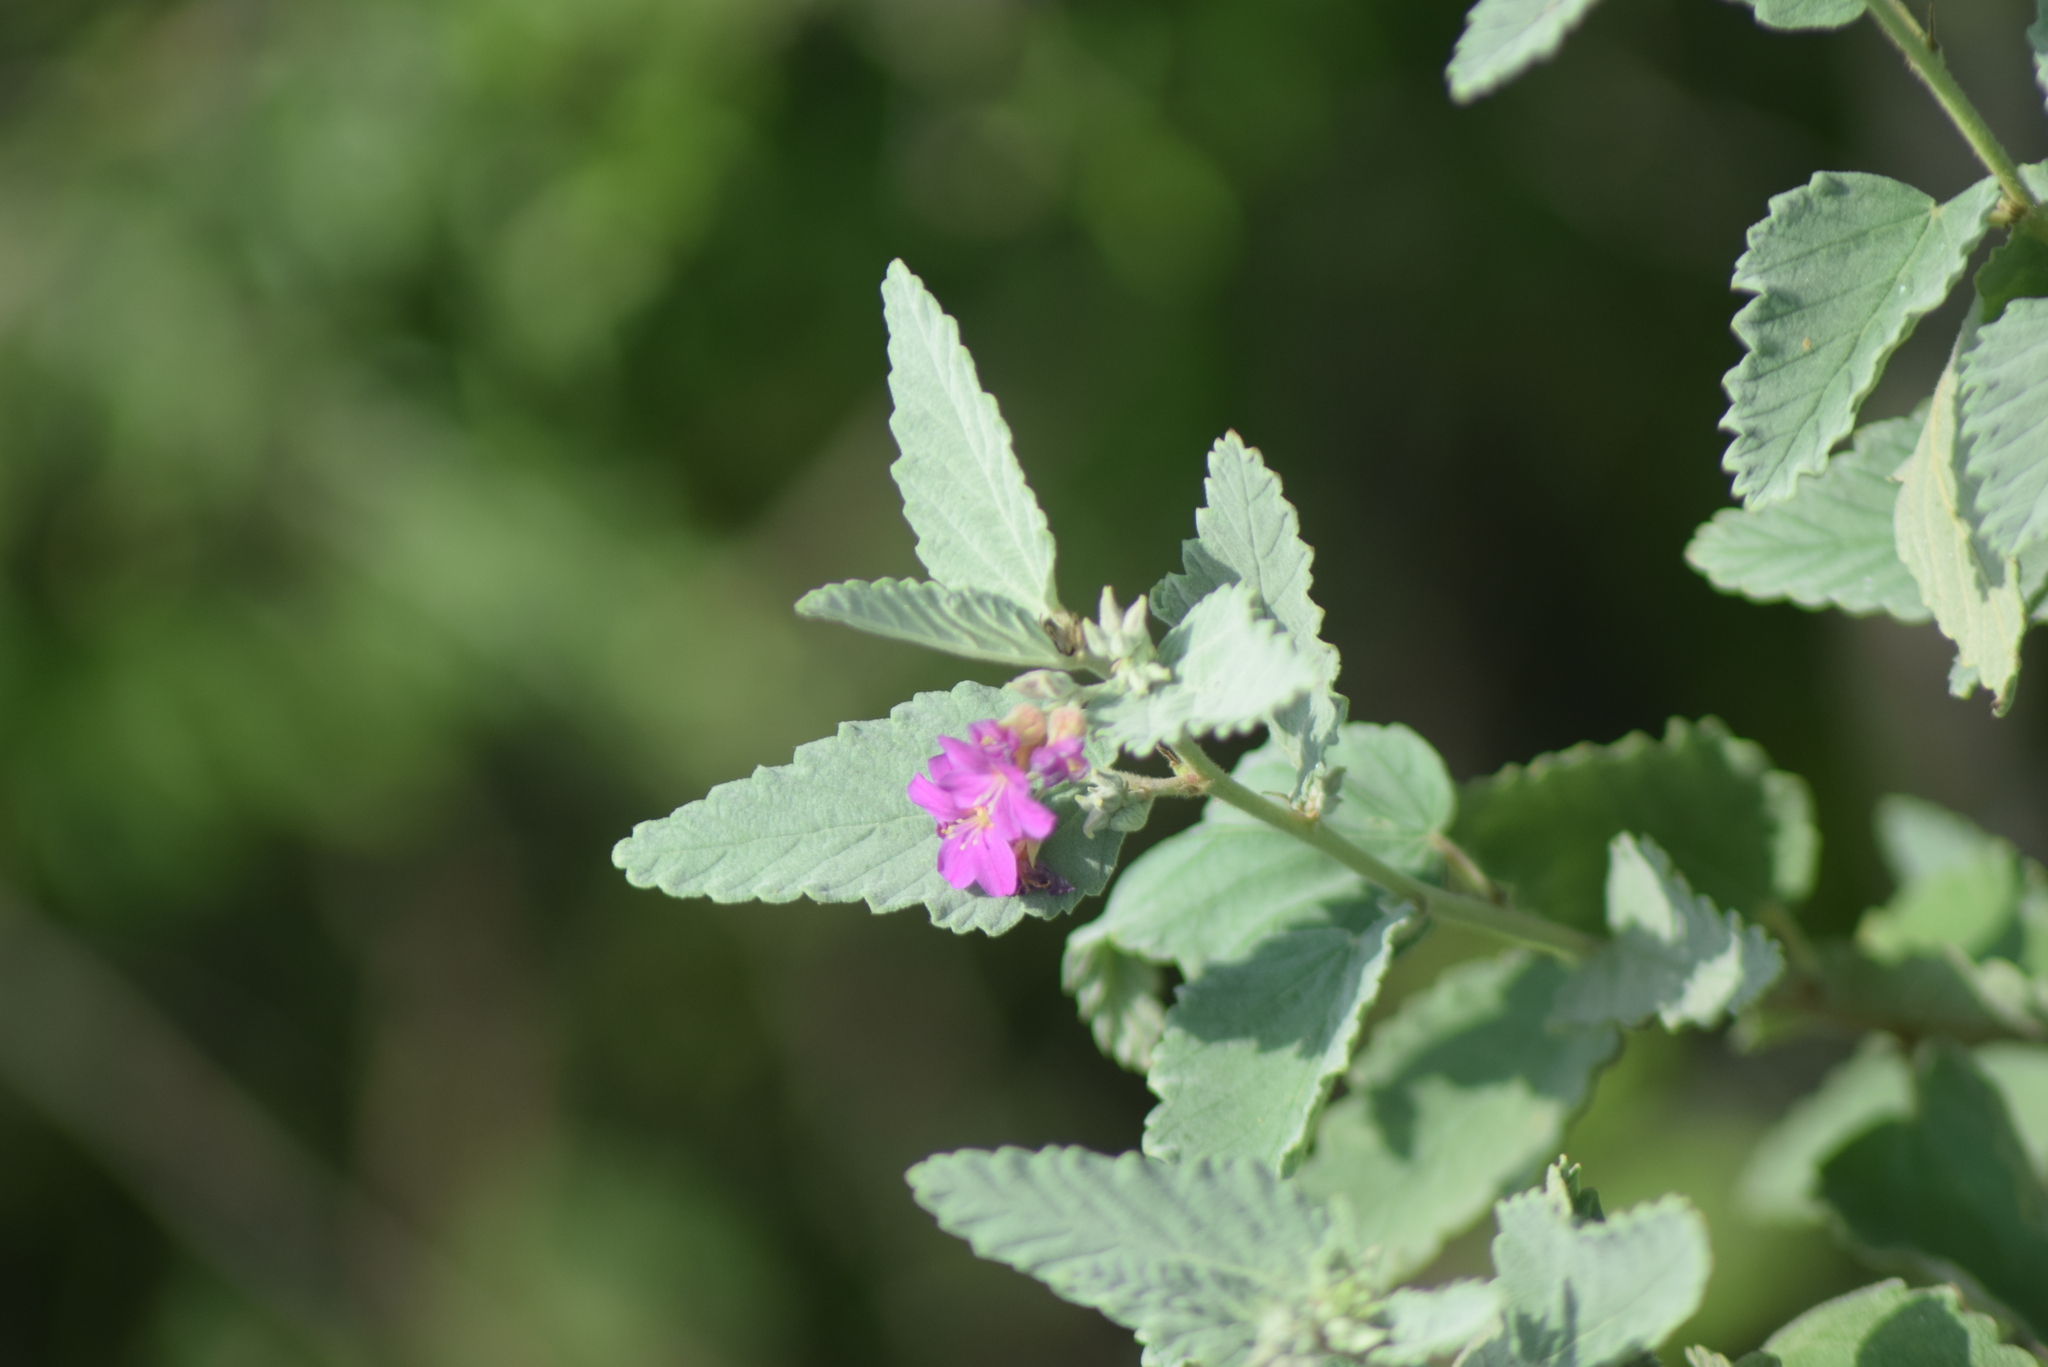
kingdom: Plantae
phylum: Tracheophyta
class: Magnoliopsida
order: Malvales
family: Malvaceae
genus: Melochia
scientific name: Melochia tomentosa
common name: Black torch
